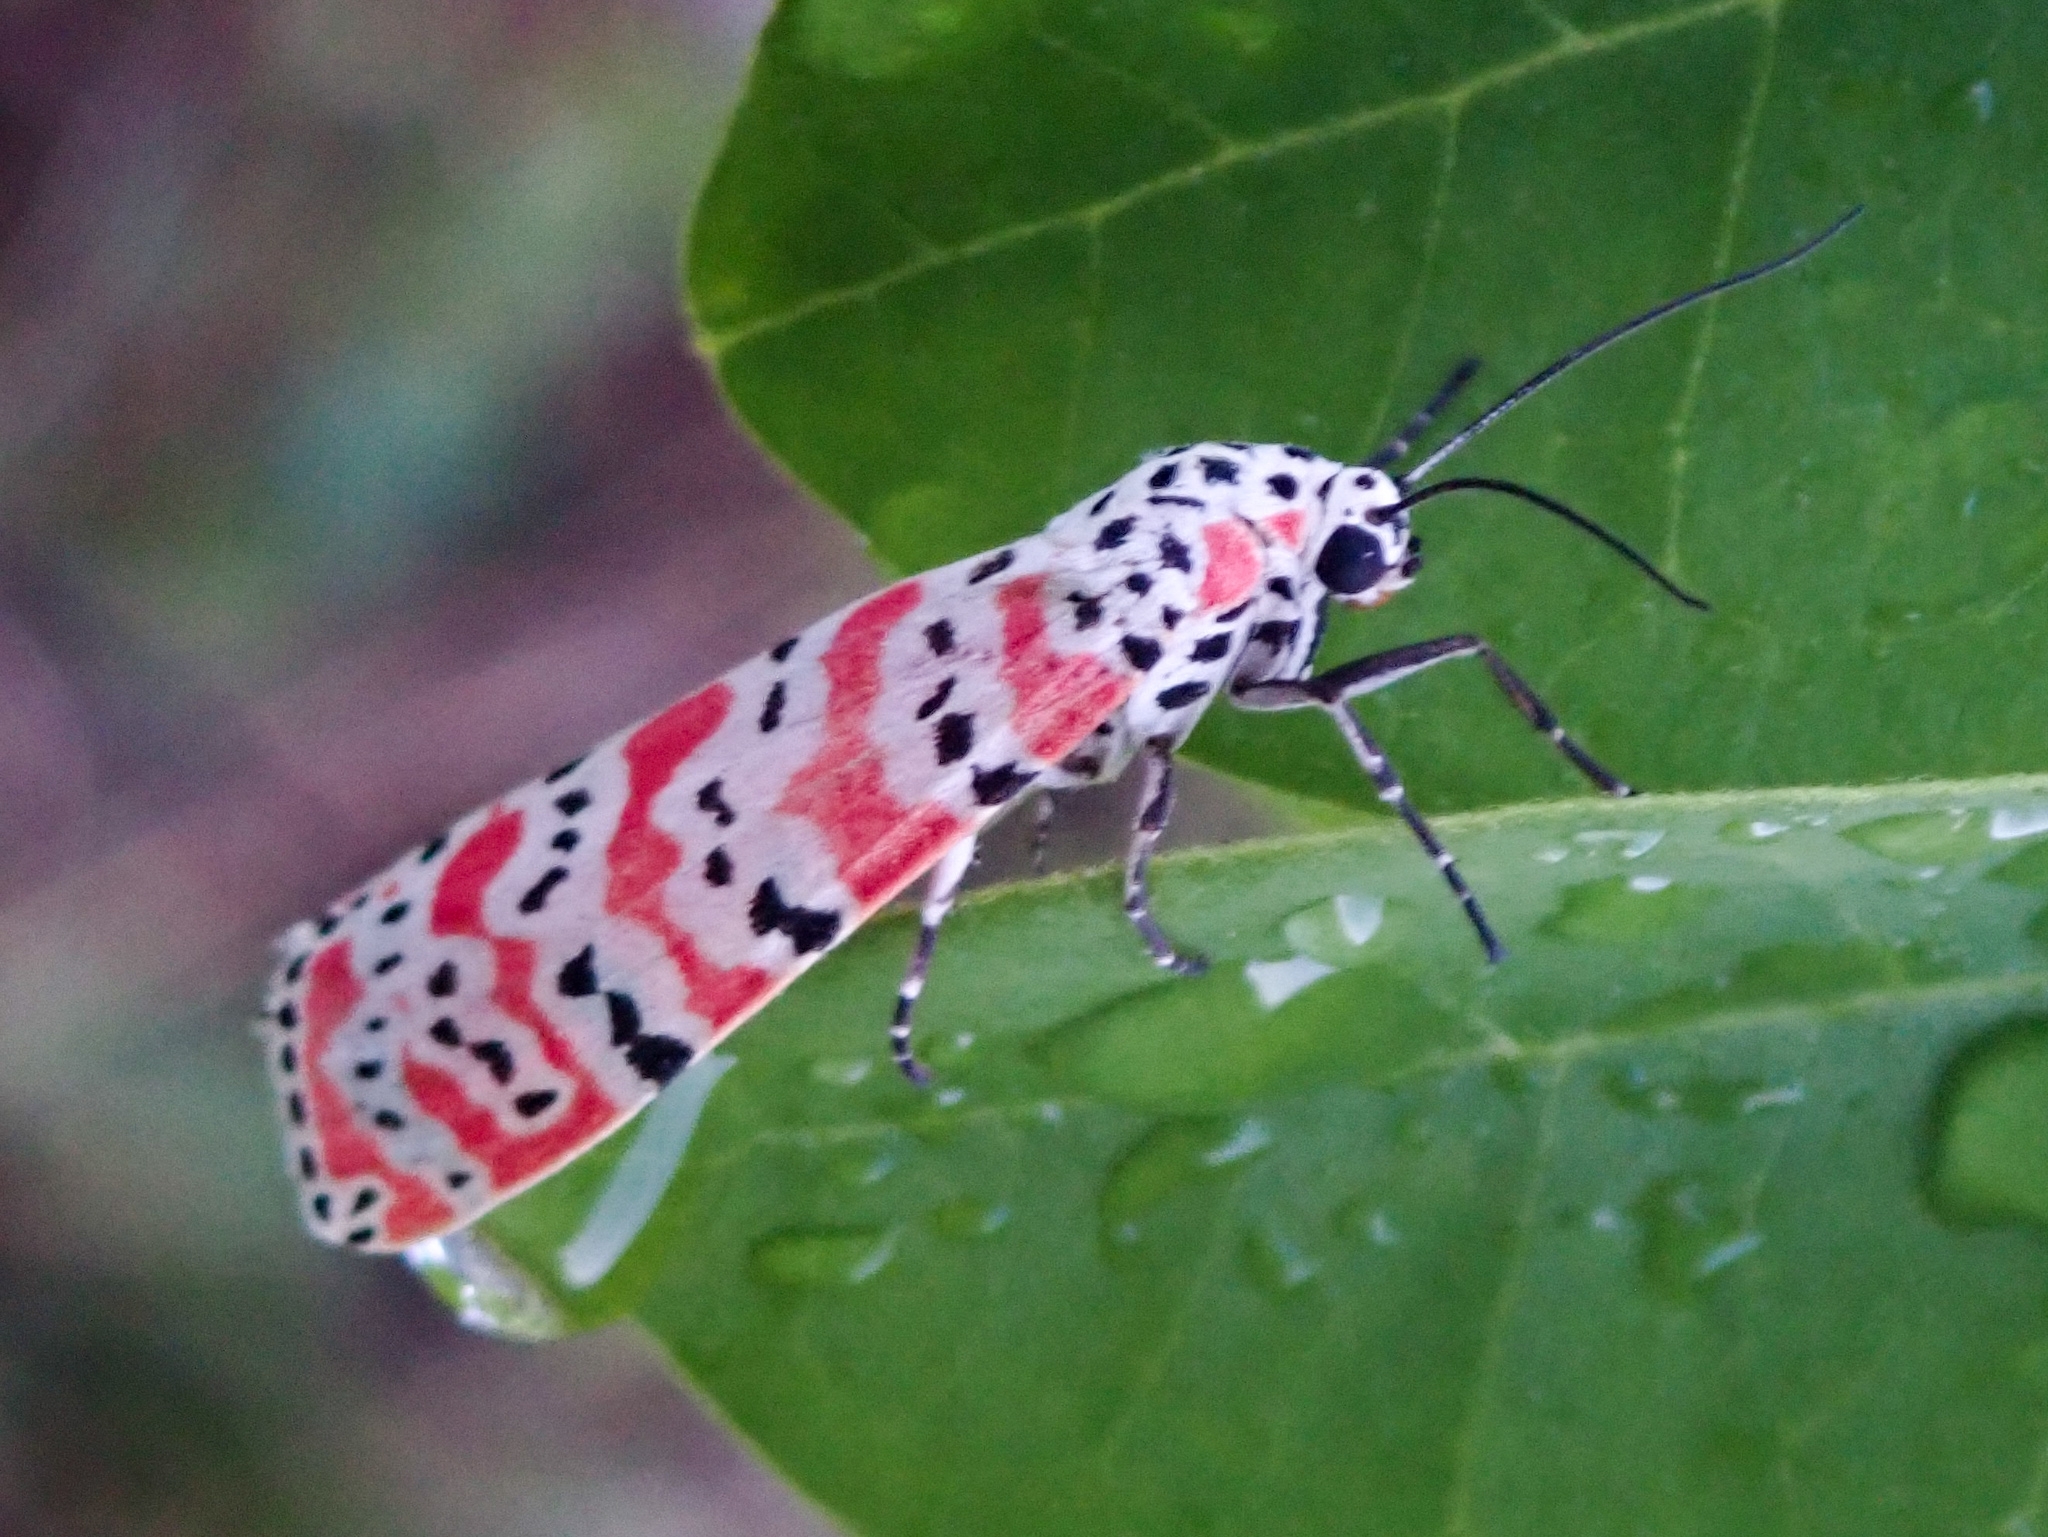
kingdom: Animalia
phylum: Arthropoda
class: Insecta
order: Lepidoptera
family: Erebidae
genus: Utetheisa
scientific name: Utetheisa ornatrix
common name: Beautiful utetheisa
